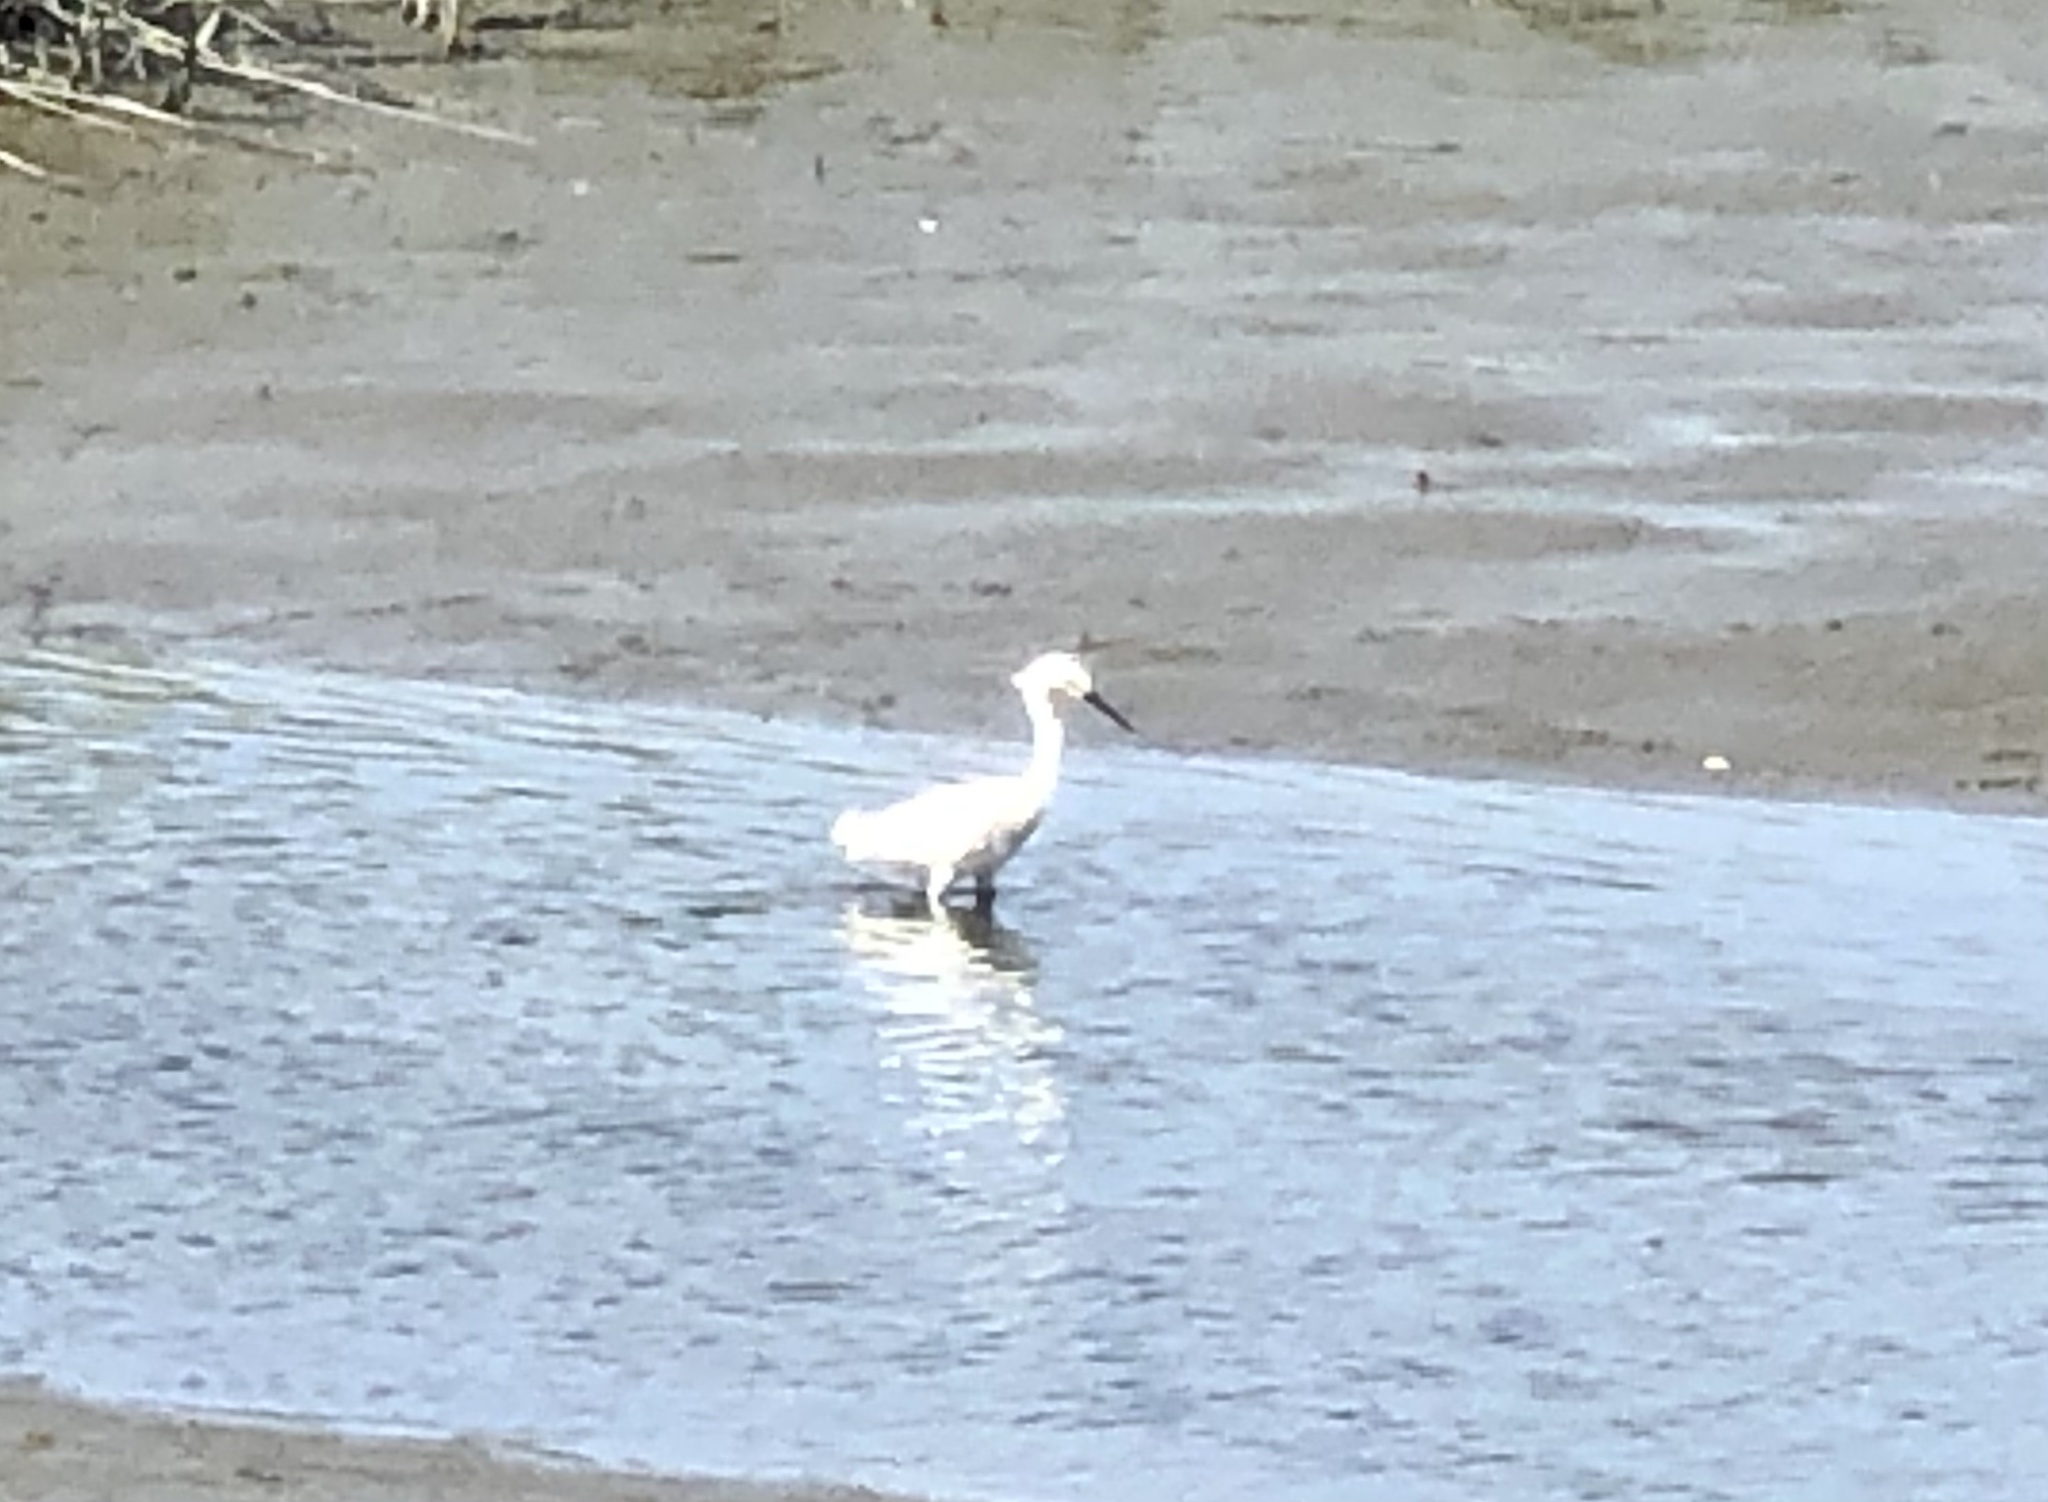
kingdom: Animalia
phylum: Chordata
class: Aves
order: Pelecaniformes
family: Ardeidae
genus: Egretta
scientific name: Egretta thula
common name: Snowy egret
